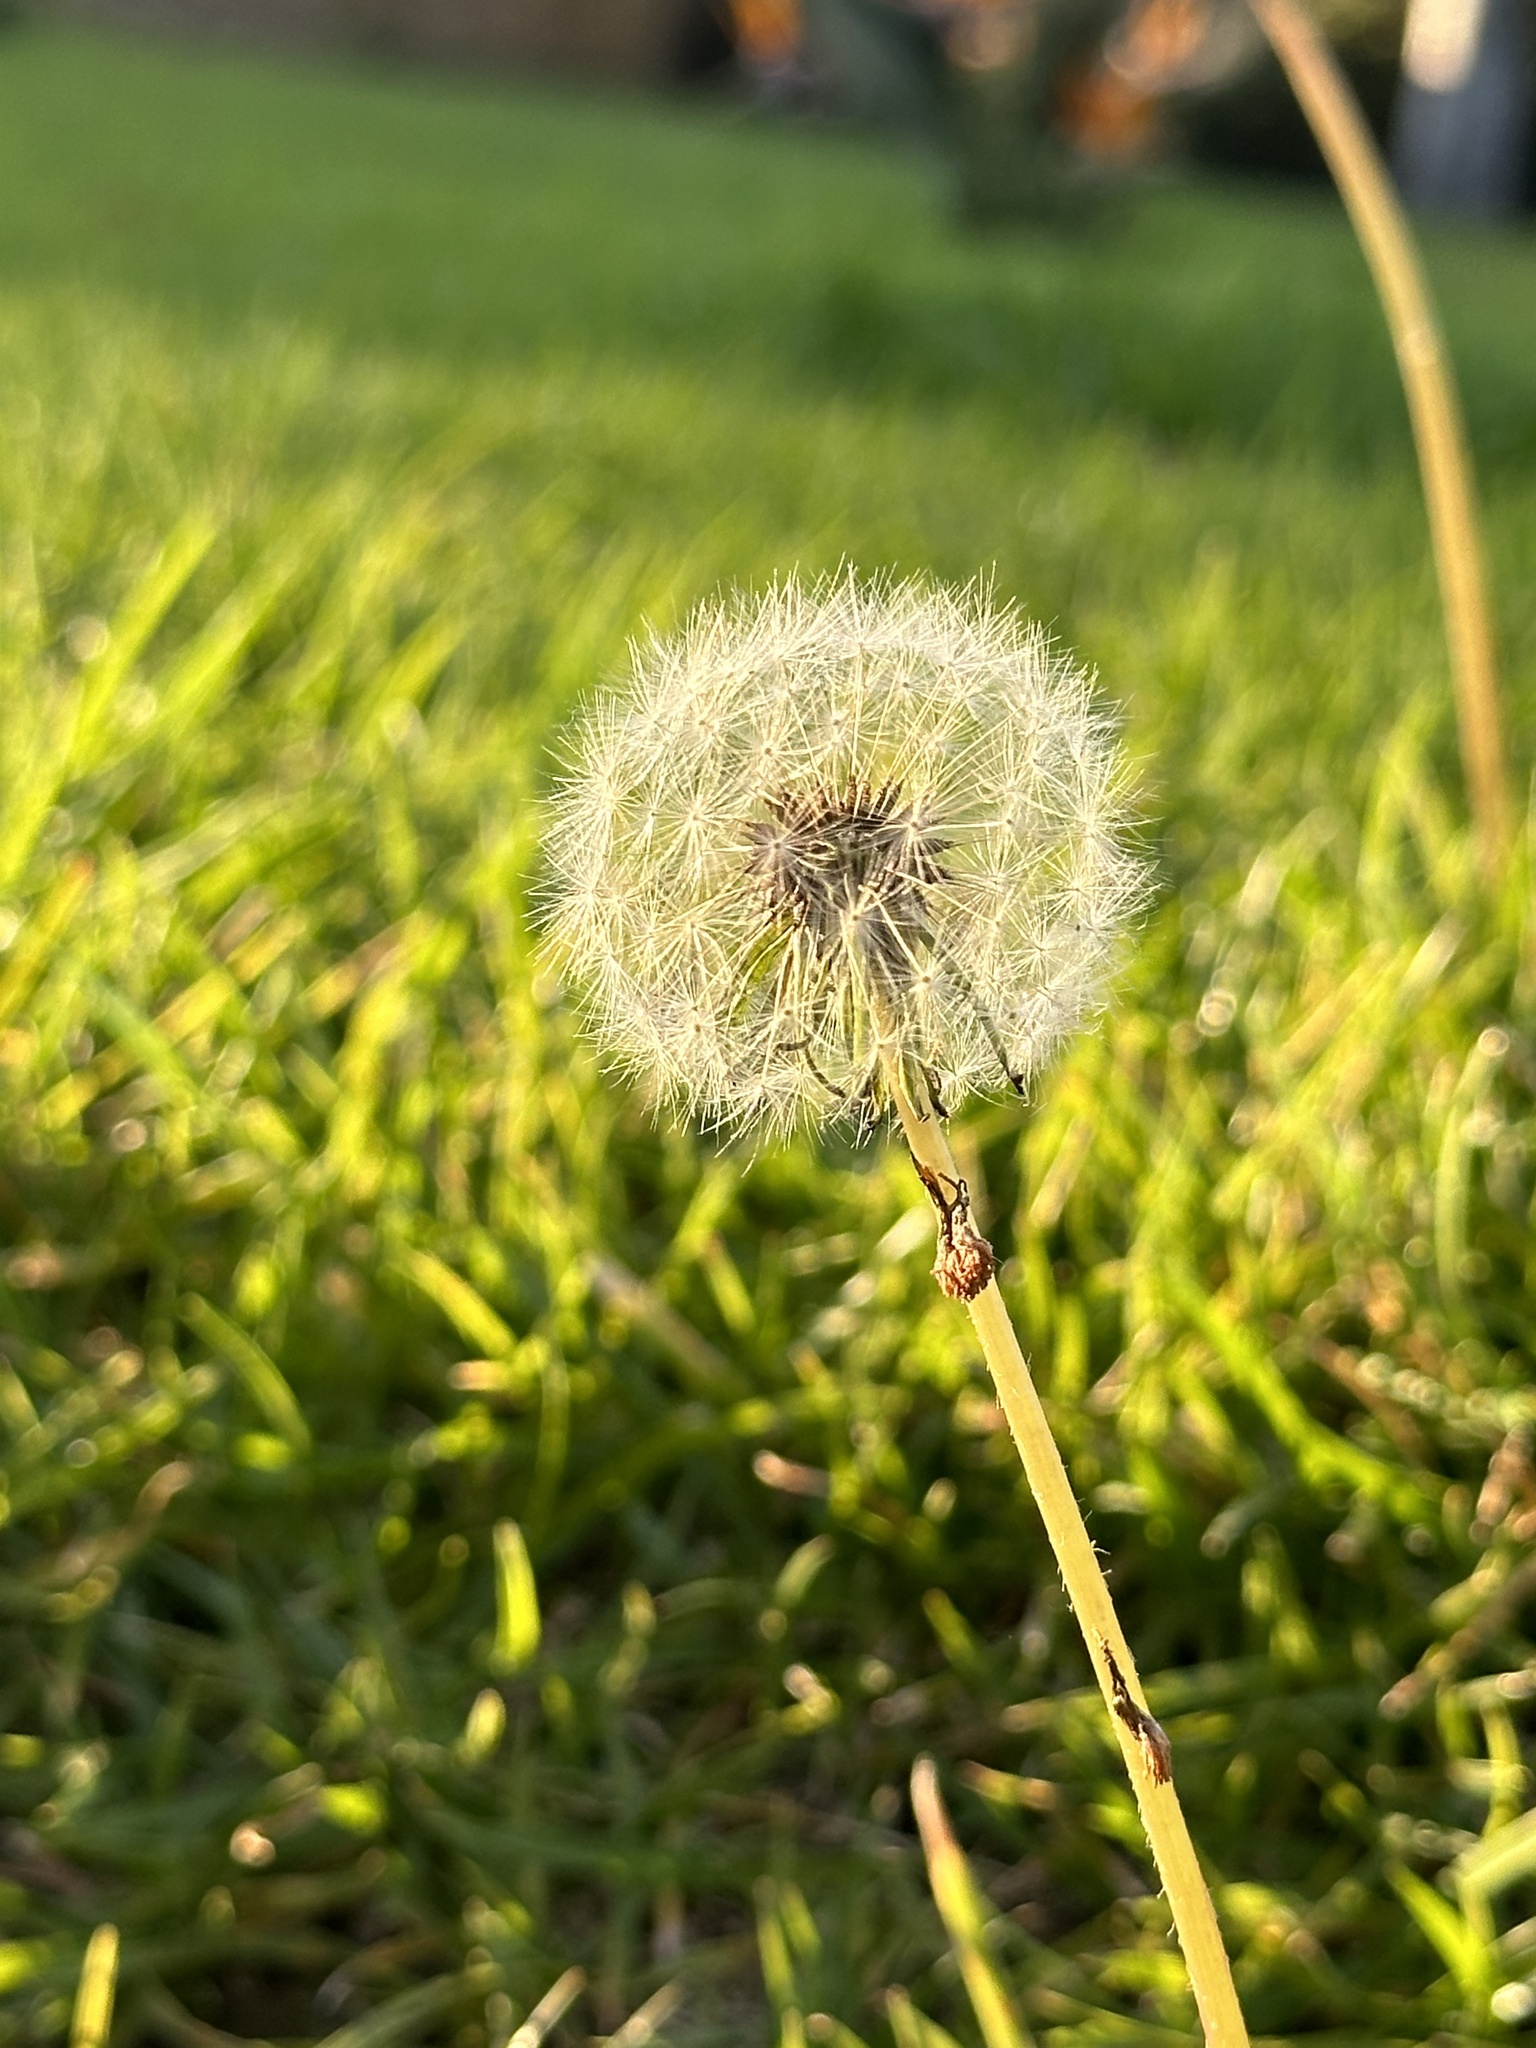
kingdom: Plantae
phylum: Tracheophyta
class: Magnoliopsida
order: Asterales
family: Asteraceae
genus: Taraxacum
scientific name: Taraxacum
